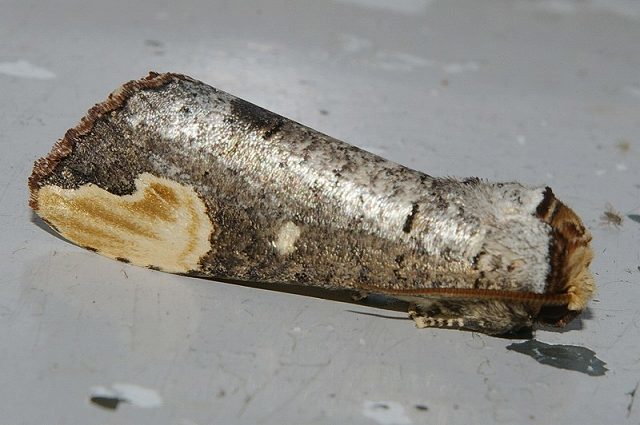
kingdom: Animalia
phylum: Arthropoda
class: Insecta
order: Lepidoptera
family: Notodontidae
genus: Phalera
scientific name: Phalera angustipennis
